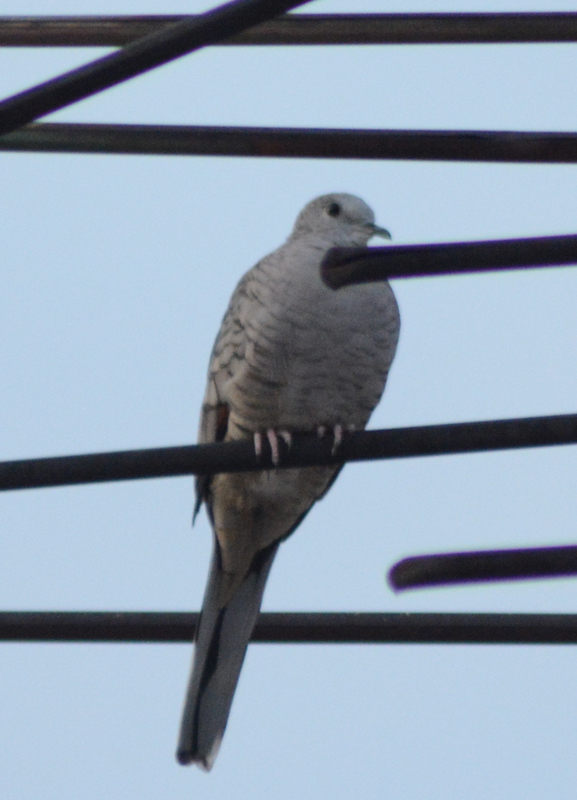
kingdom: Animalia
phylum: Chordata
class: Aves
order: Columbiformes
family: Columbidae
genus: Columbina
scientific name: Columbina inca
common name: Inca dove
